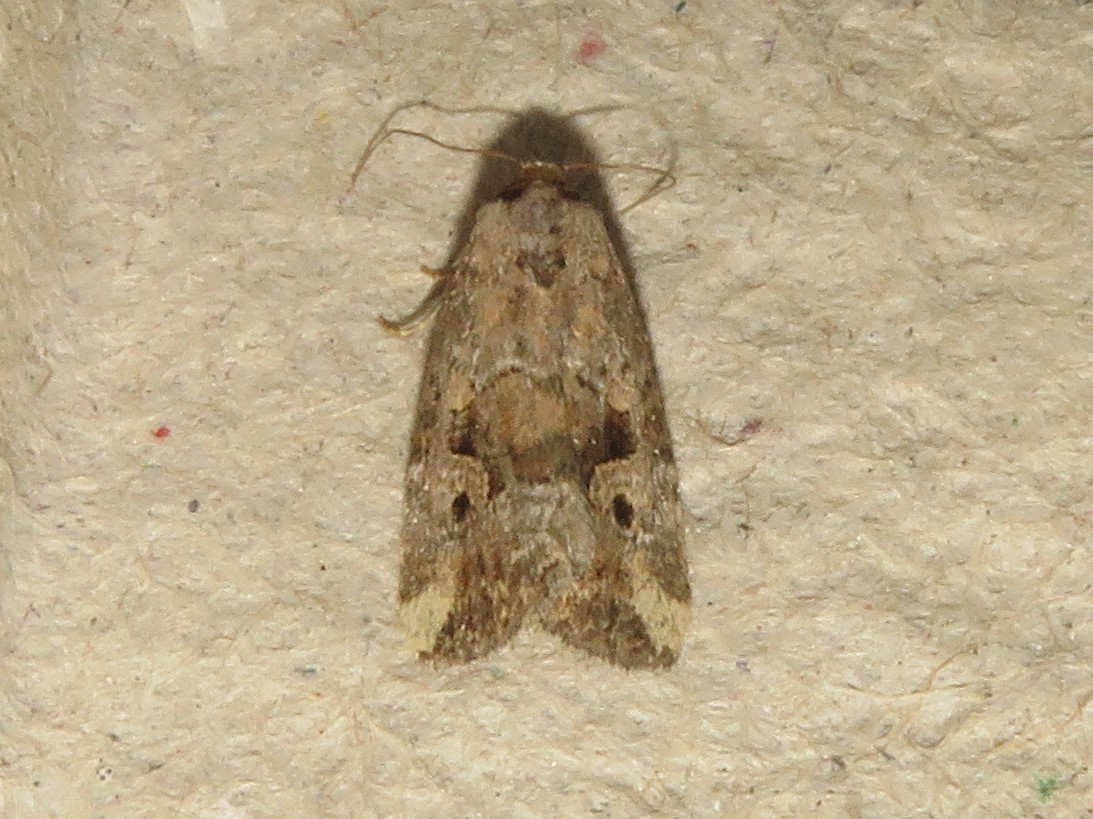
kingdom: Animalia
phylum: Arthropoda
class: Insecta
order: Lepidoptera
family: Noctuidae
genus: Elaphria
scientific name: Elaphria alapallida
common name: Pale-winged midget
